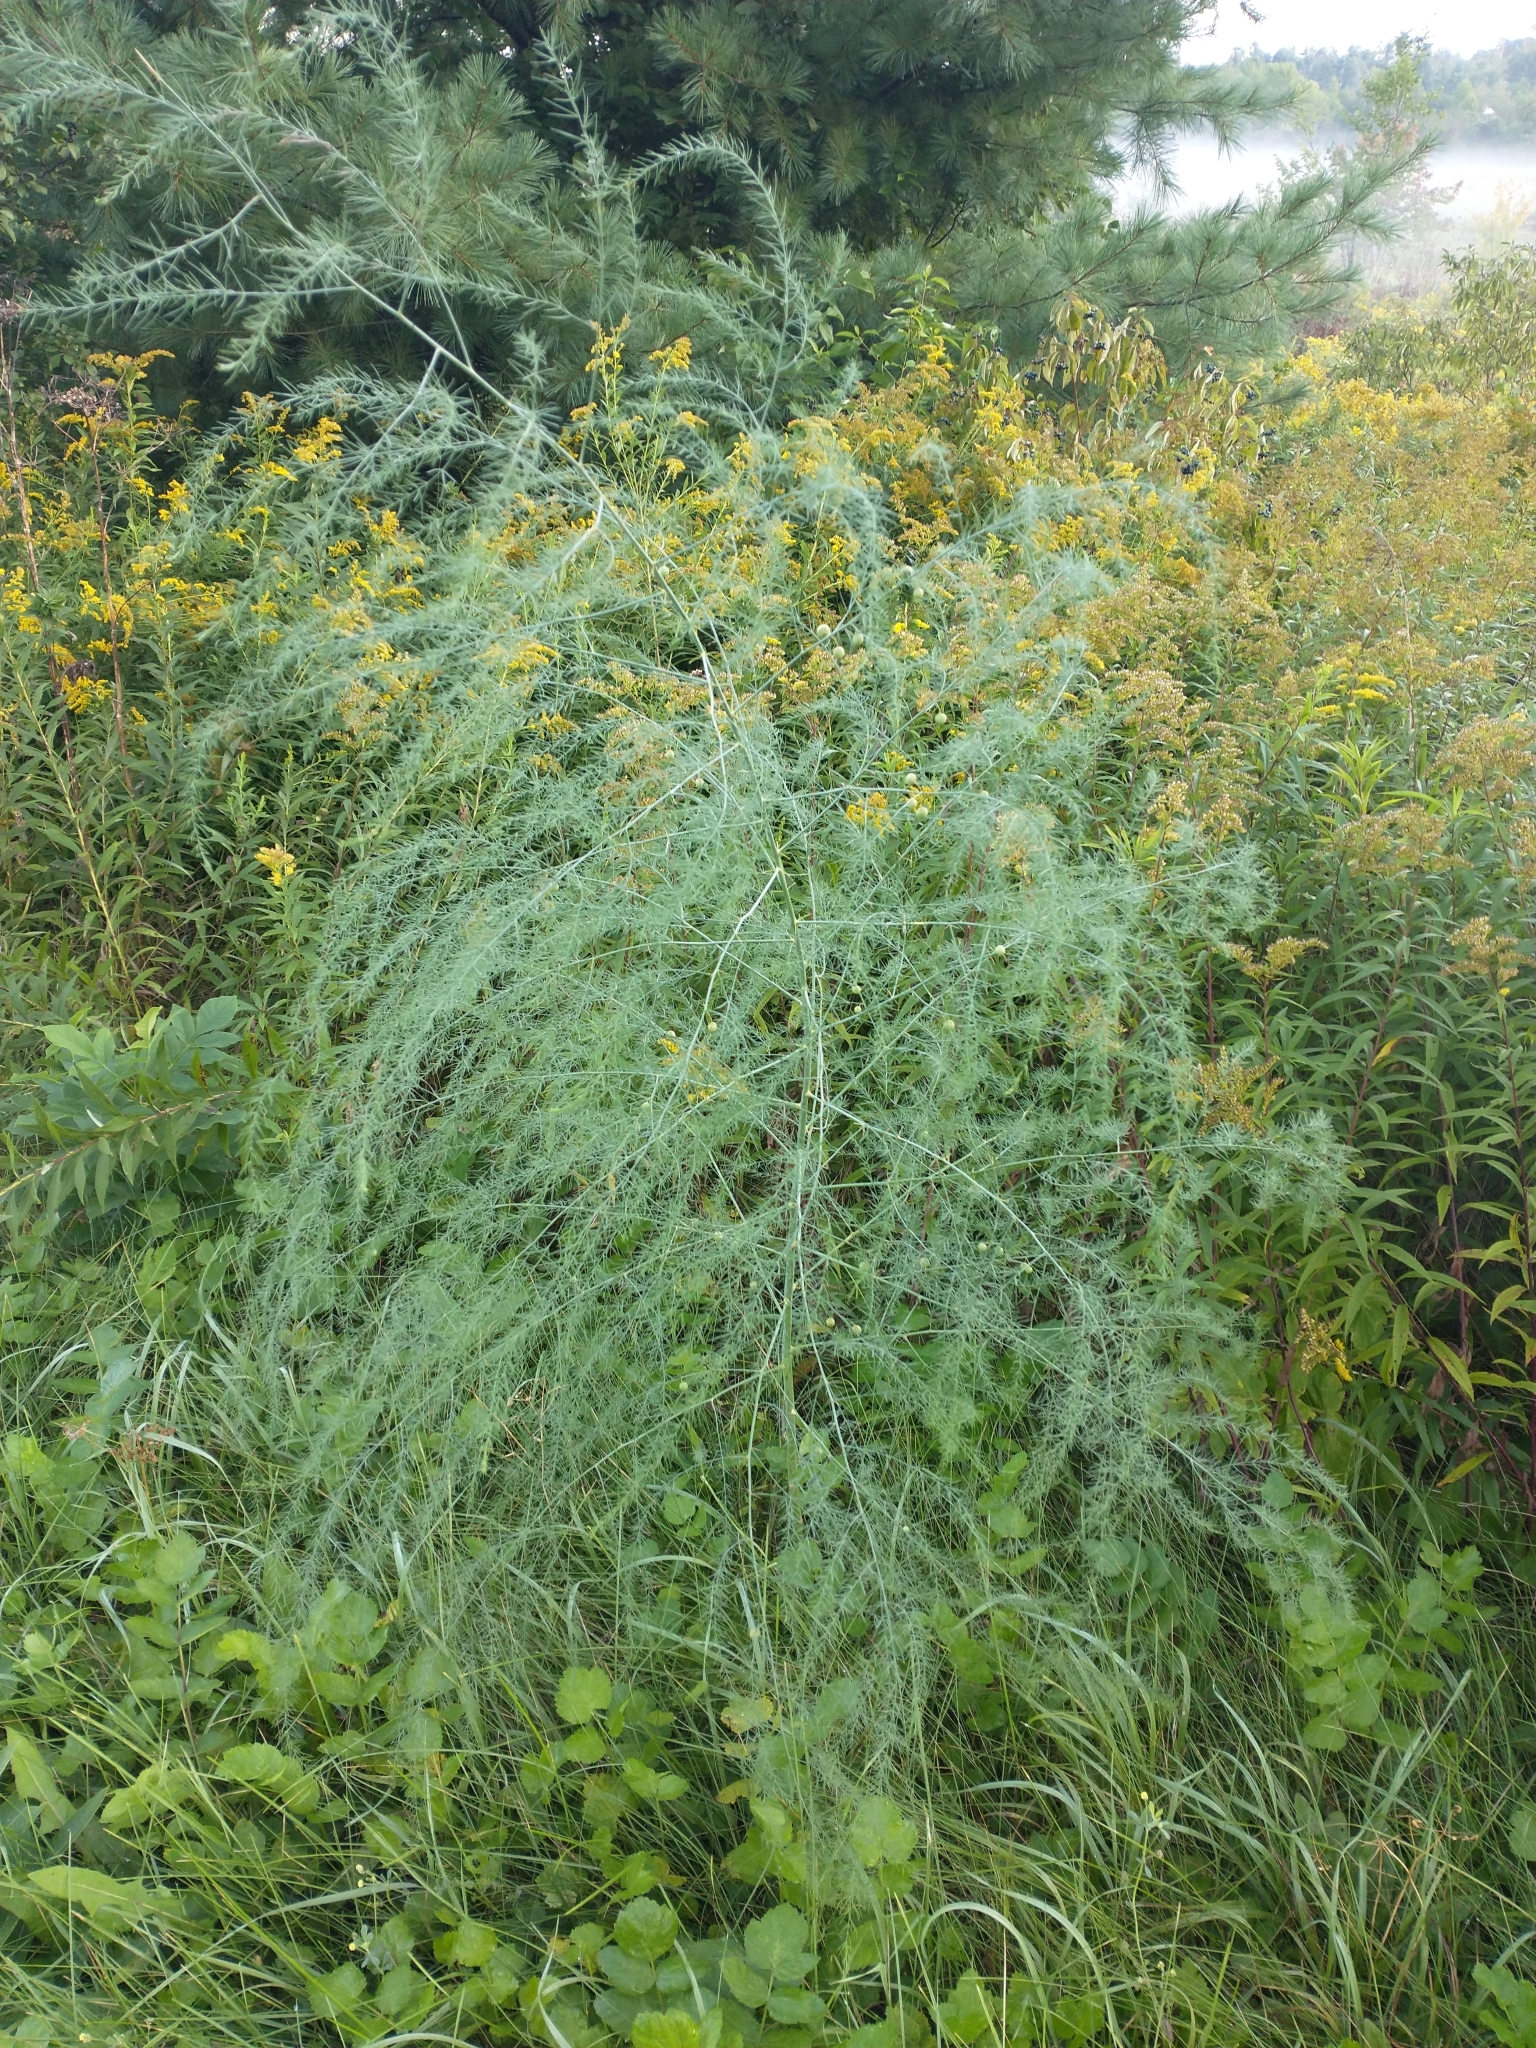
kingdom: Plantae
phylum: Tracheophyta
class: Liliopsida
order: Asparagales
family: Asparagaceae
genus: Asparagus
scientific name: Asparagus officinalis
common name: Garden asparagus
